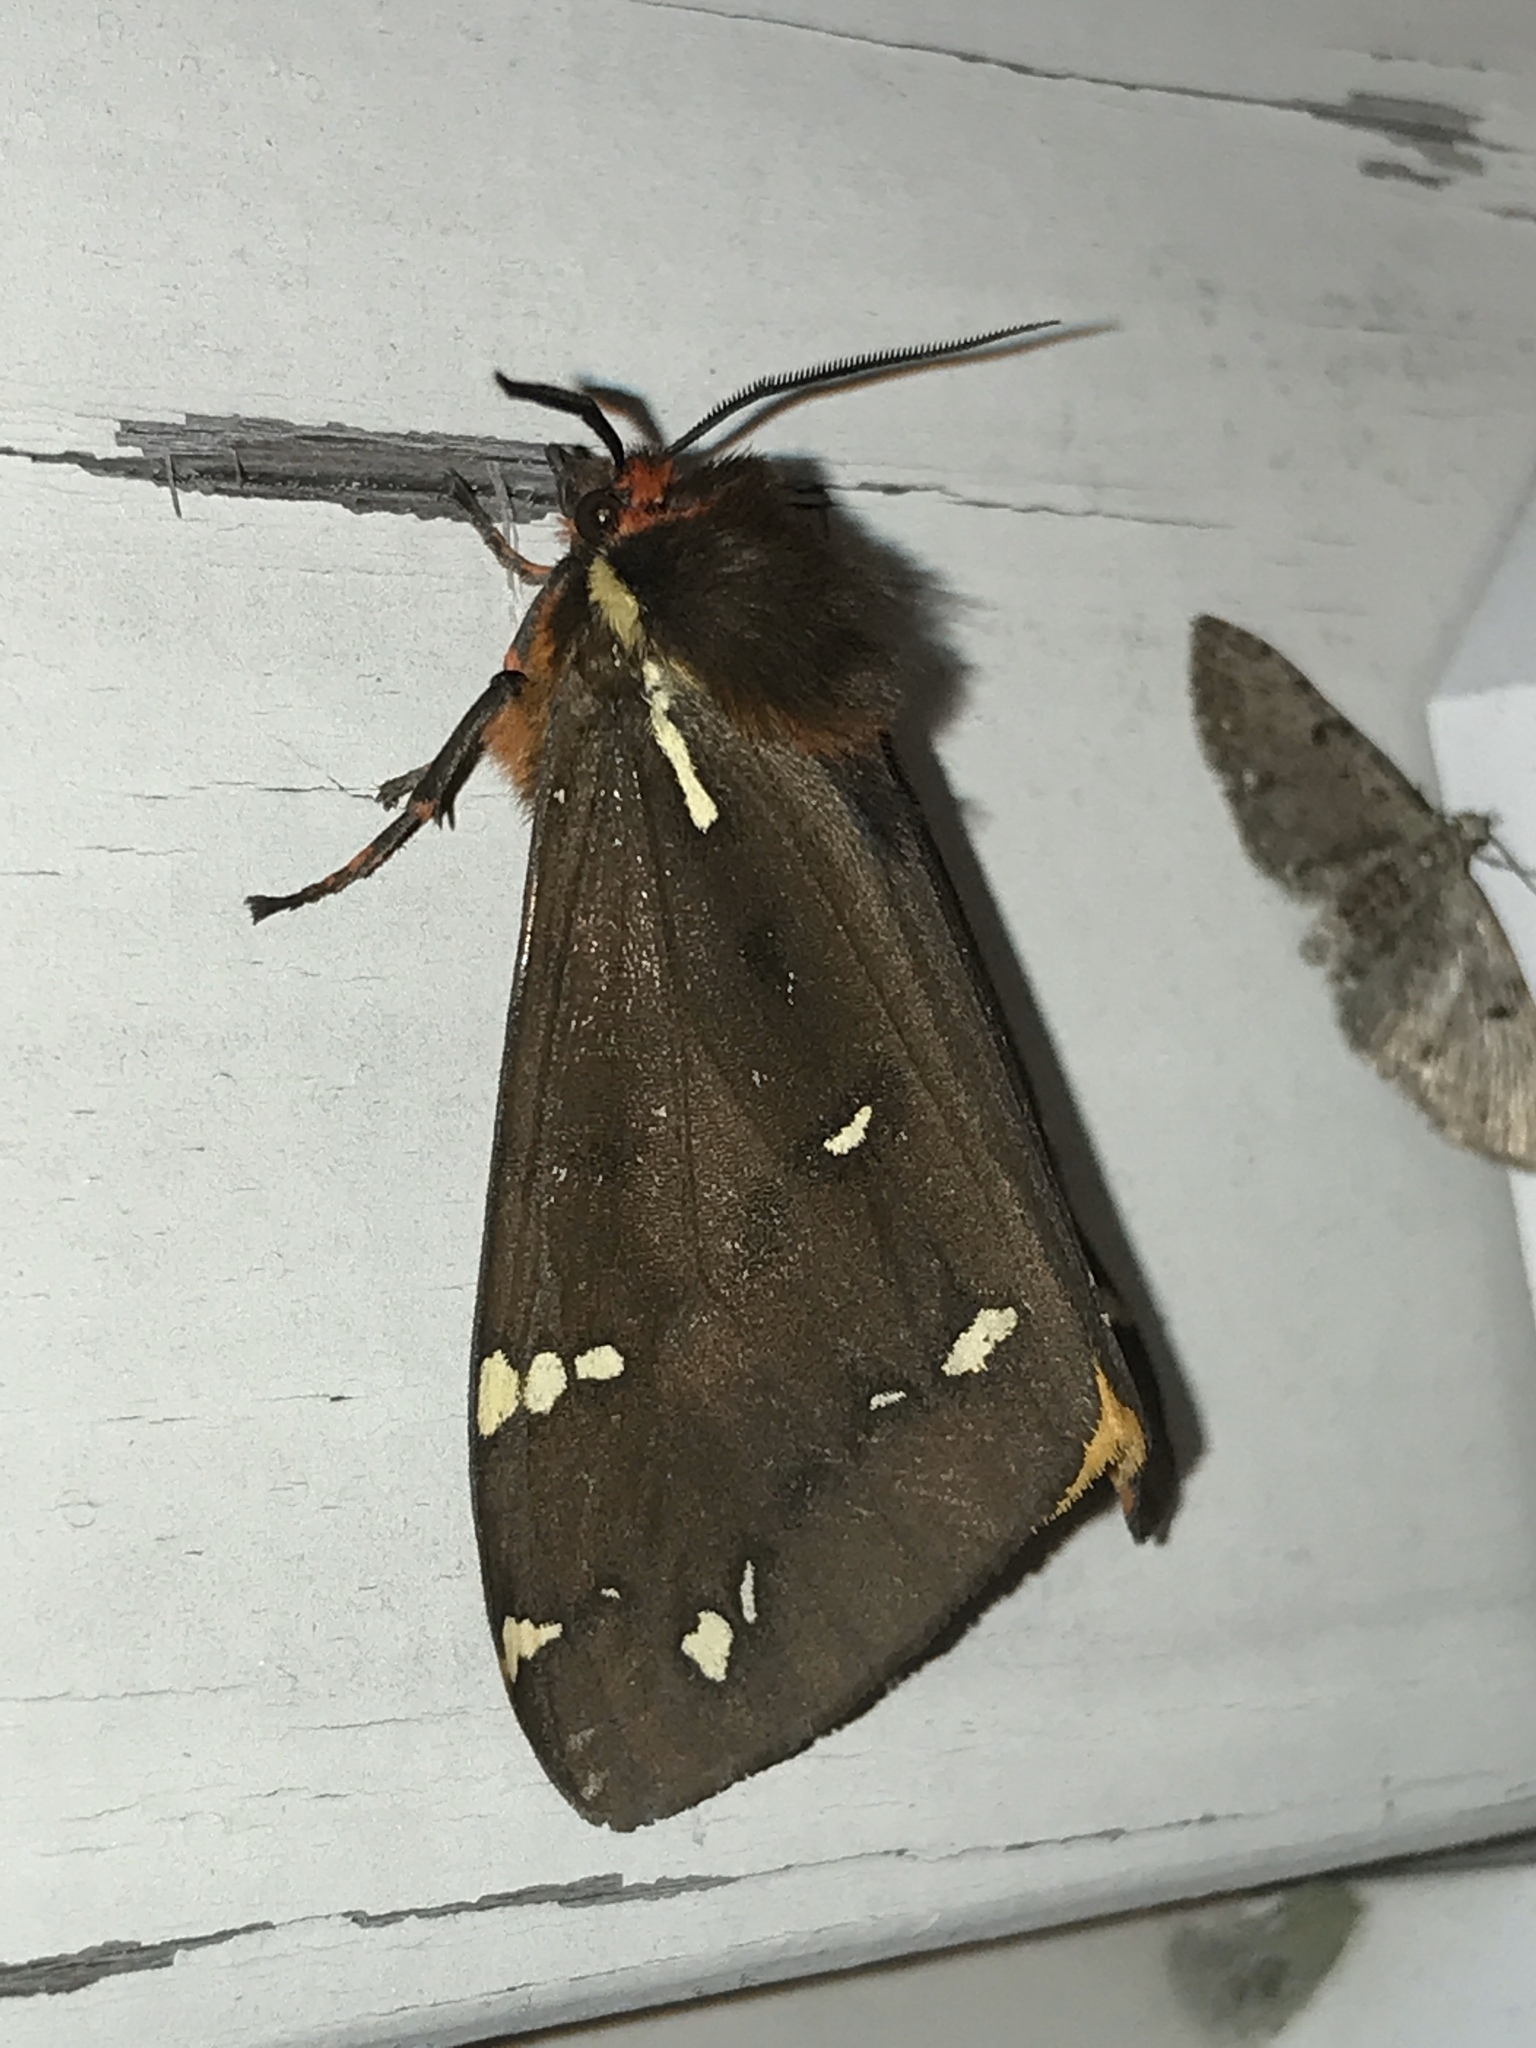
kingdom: Animalia
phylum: Arthropoda
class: Insecta
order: Lepidoptera
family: Erebidae
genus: Arctia
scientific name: Arctia parthenos
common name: St. lawrence tiger moth
